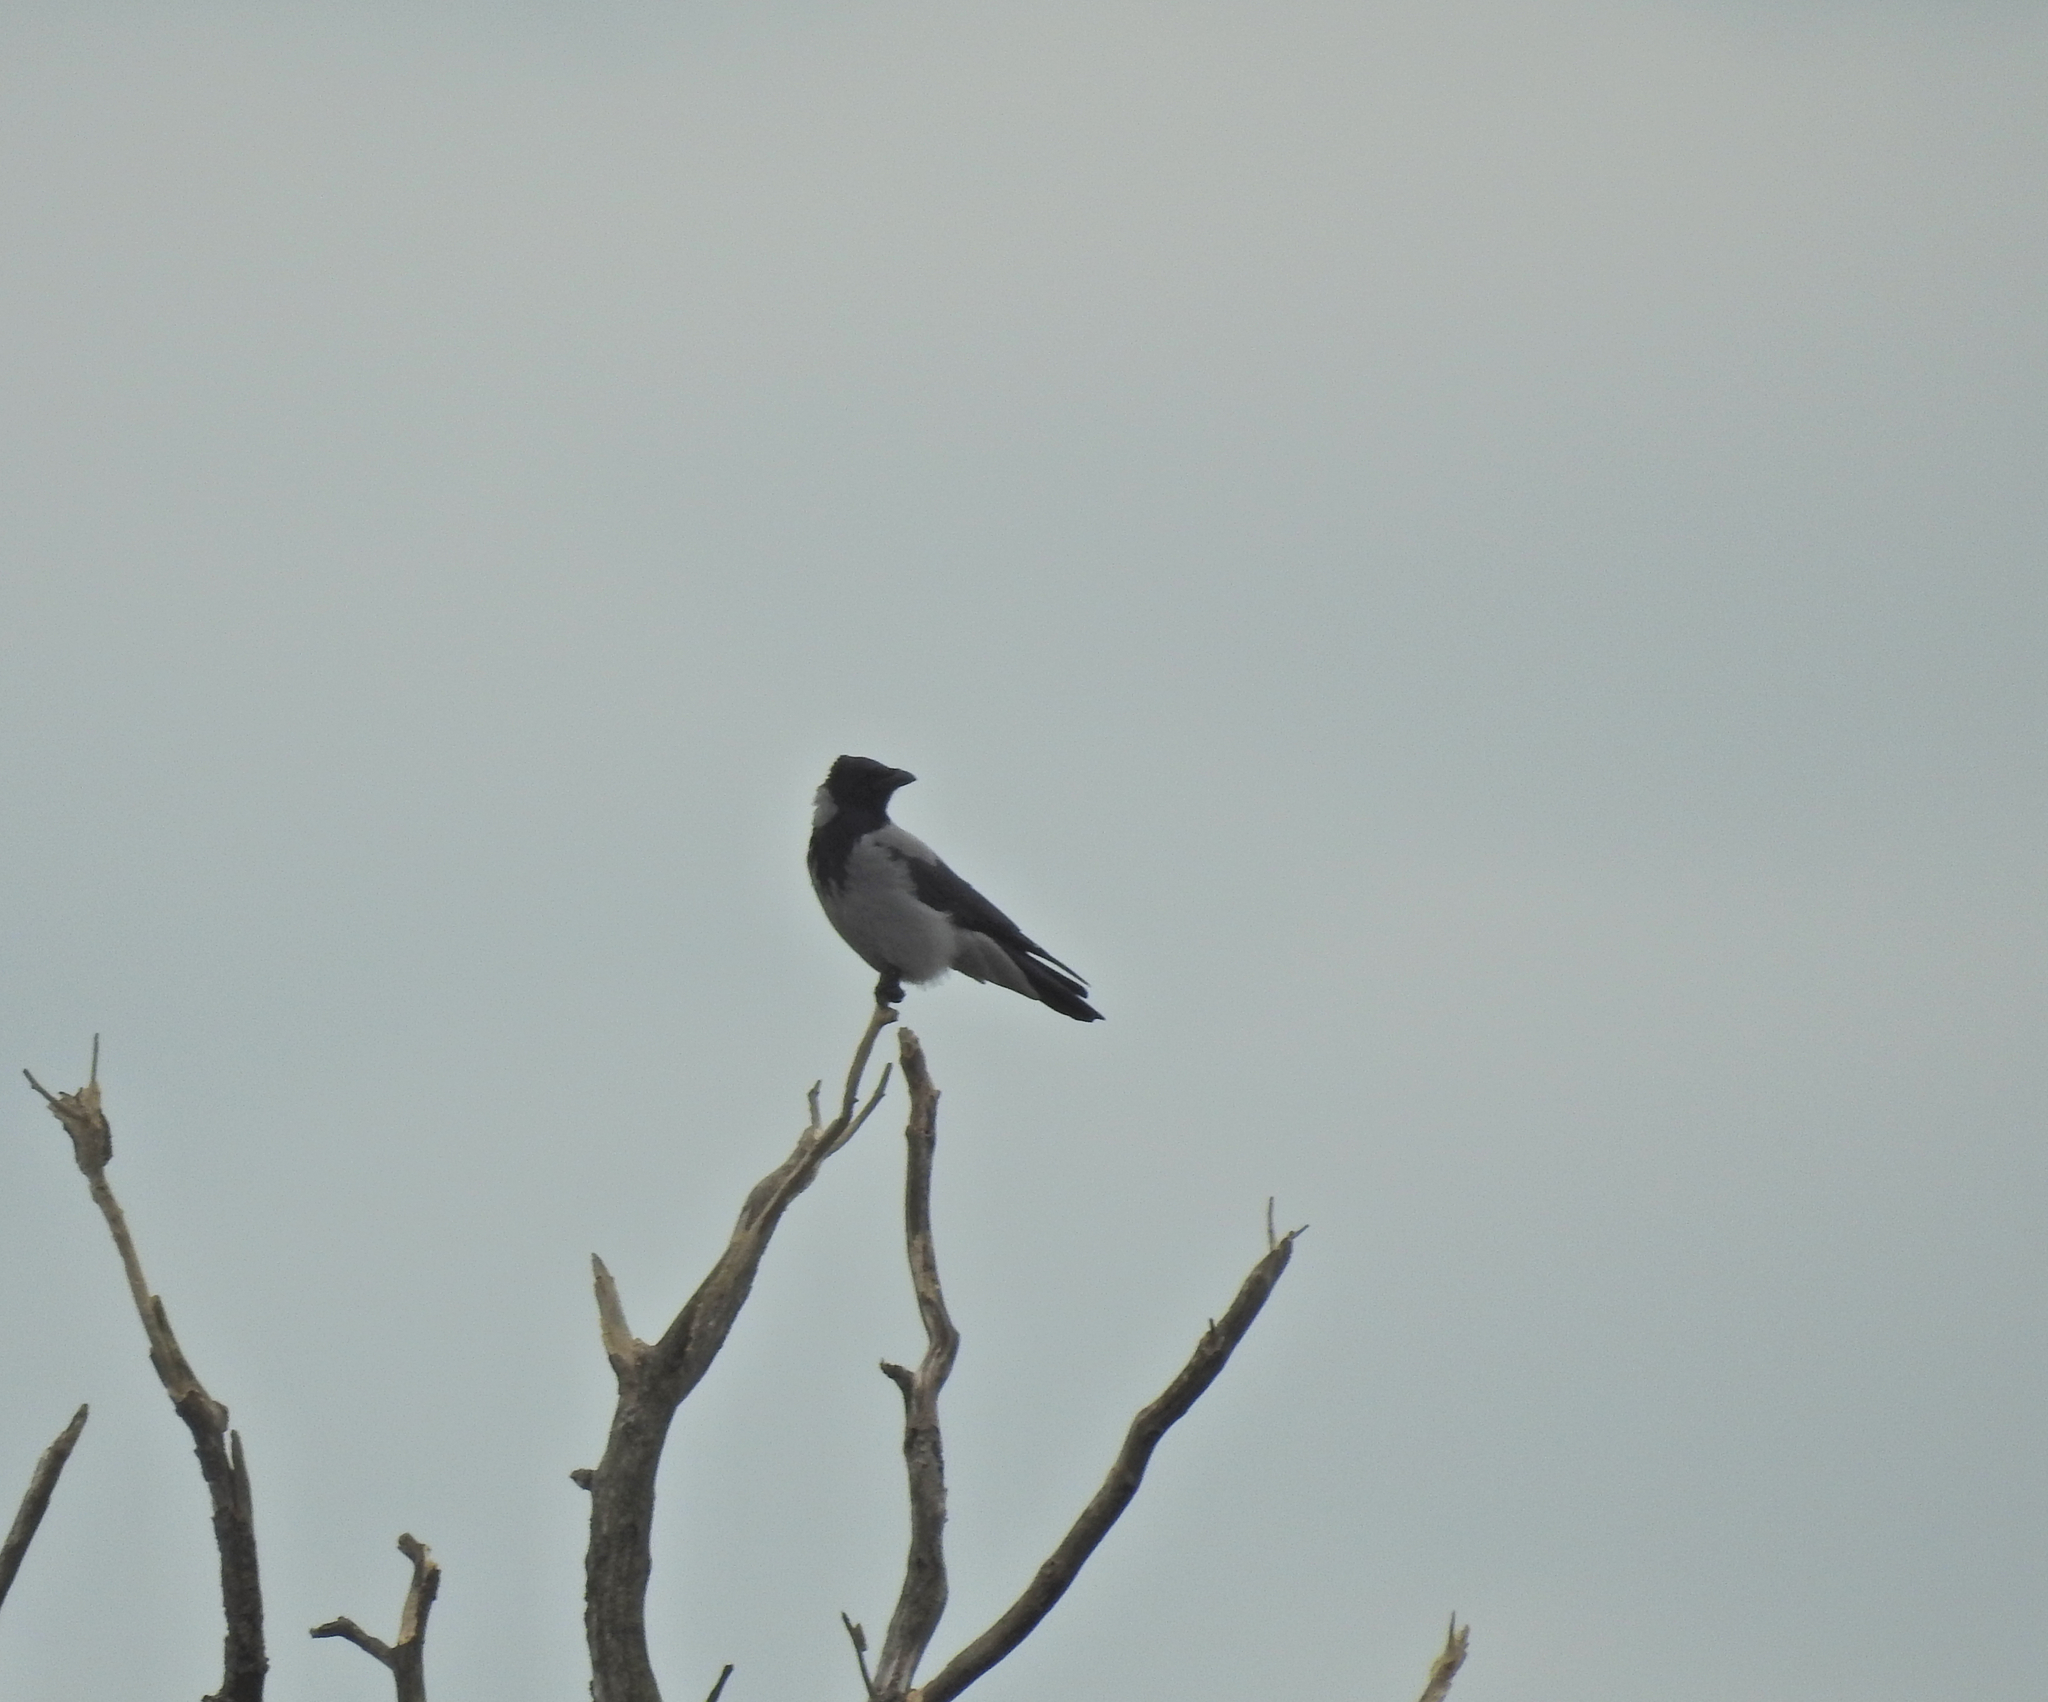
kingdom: Animalia
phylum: Chordata
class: Aves
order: Passeriformes
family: Corvidae
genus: Corvus
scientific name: Corvus cornix
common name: Hooded crow
